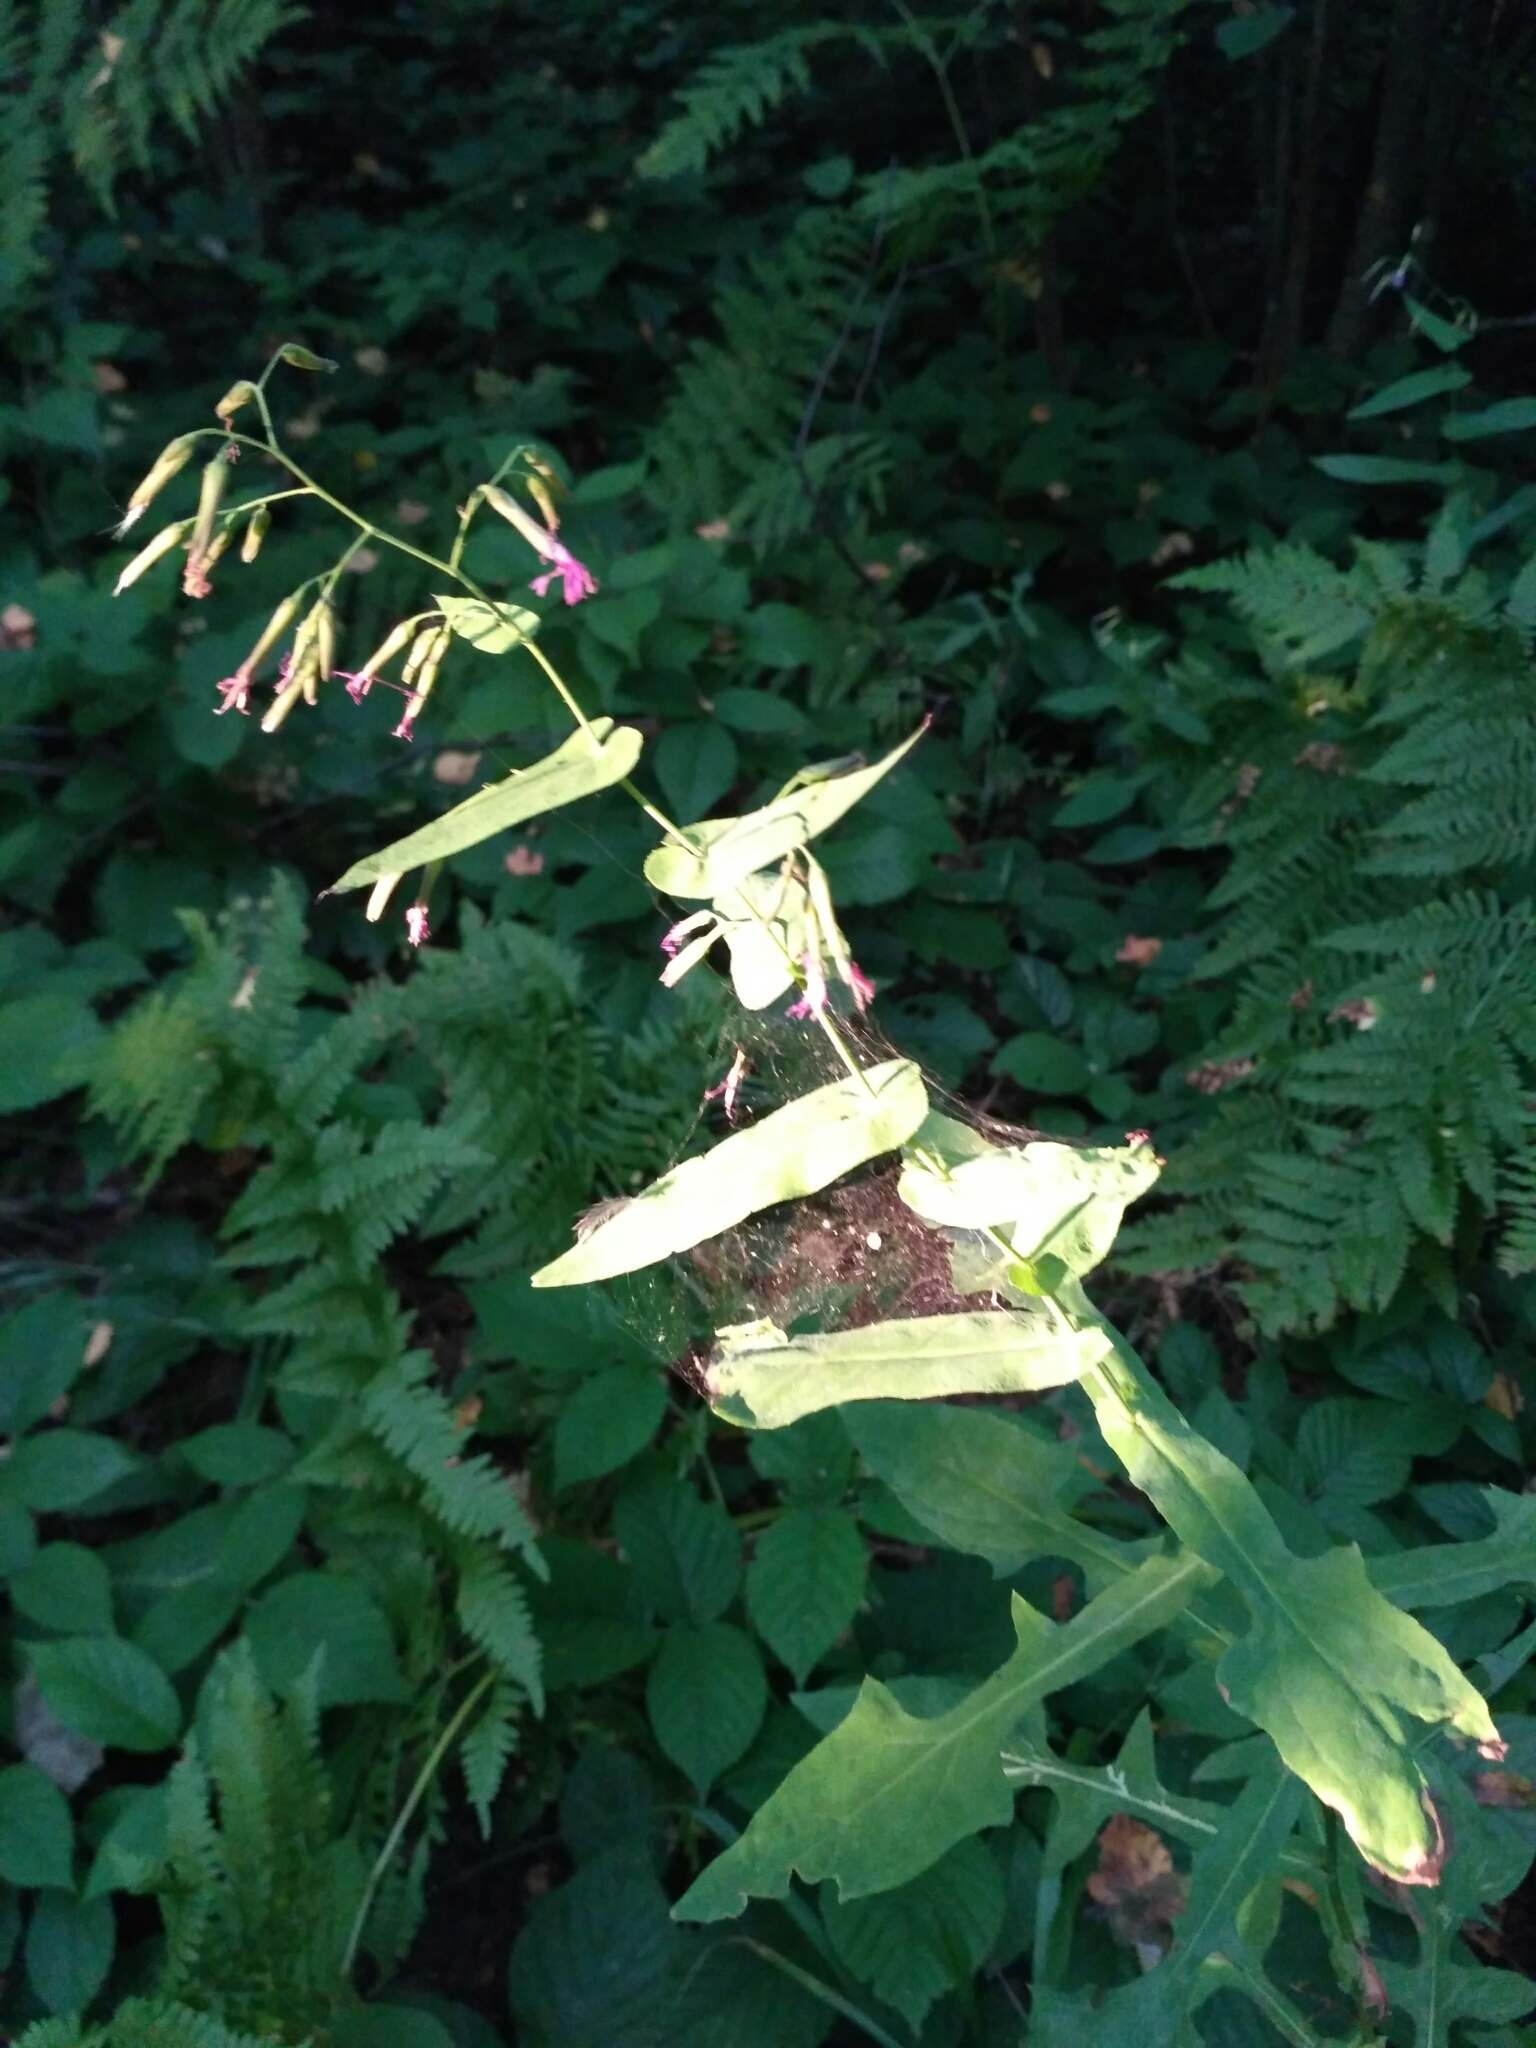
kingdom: Plantae
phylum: Tracheophyta
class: Magnoliopsida
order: Asterales
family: Asteraceae
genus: Prenanthes
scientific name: Prenanthes purpurea
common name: Purple lettuce
